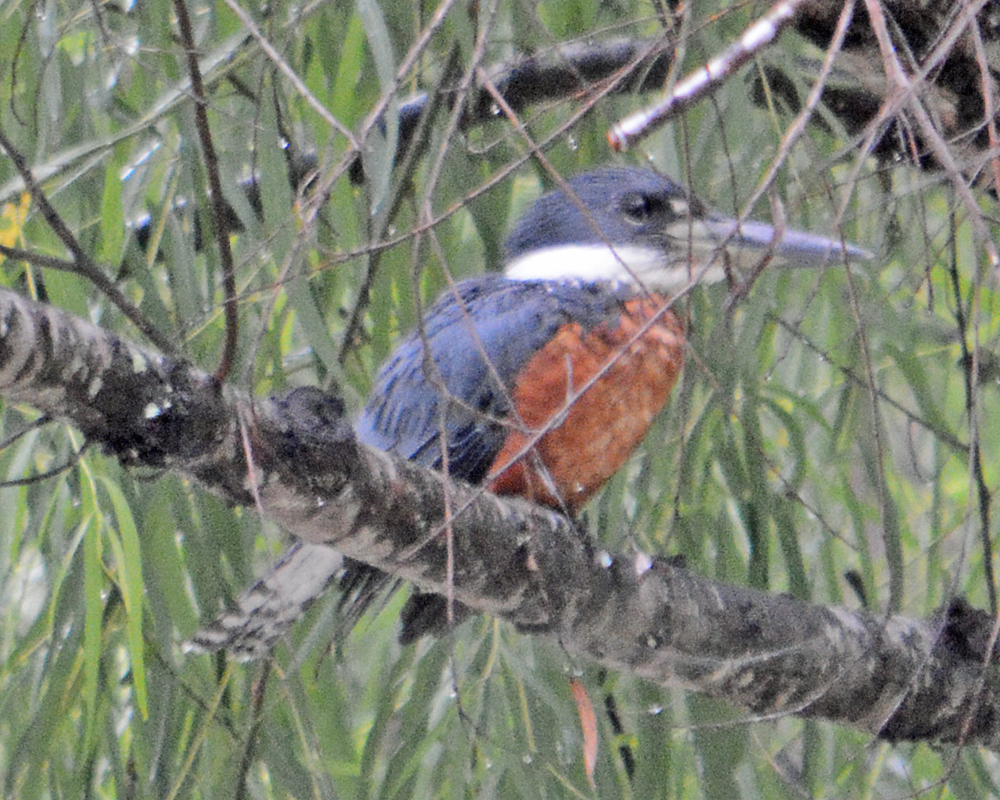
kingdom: Animalia
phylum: Chordata
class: Aves
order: Coraciiformes
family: Alcedinidae
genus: Megaceryle
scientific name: Megaceryle torquata
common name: Ringed kingfisher
